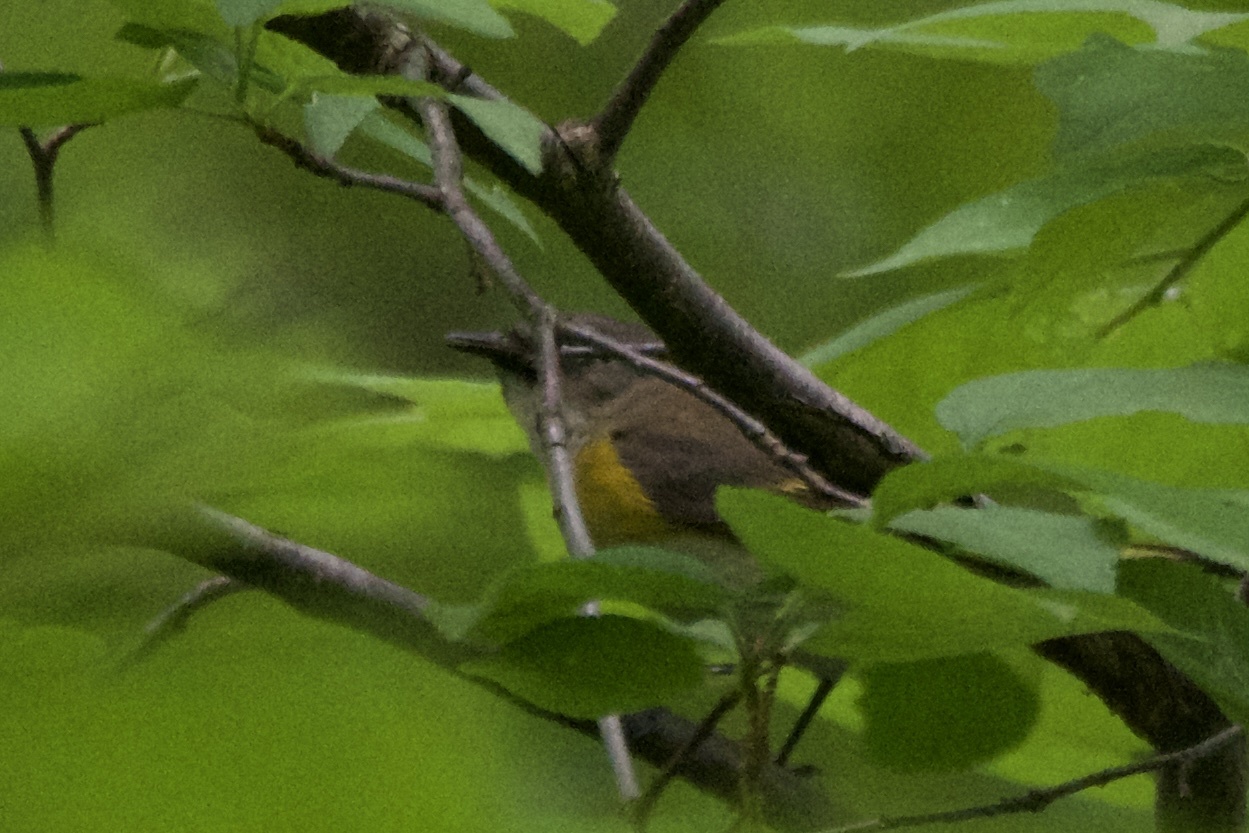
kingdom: Animalia
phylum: Chordata
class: Aves
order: Passeriformes
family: Parulidae
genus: Setophaga
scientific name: Setophaga ruticilla
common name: American redstart
